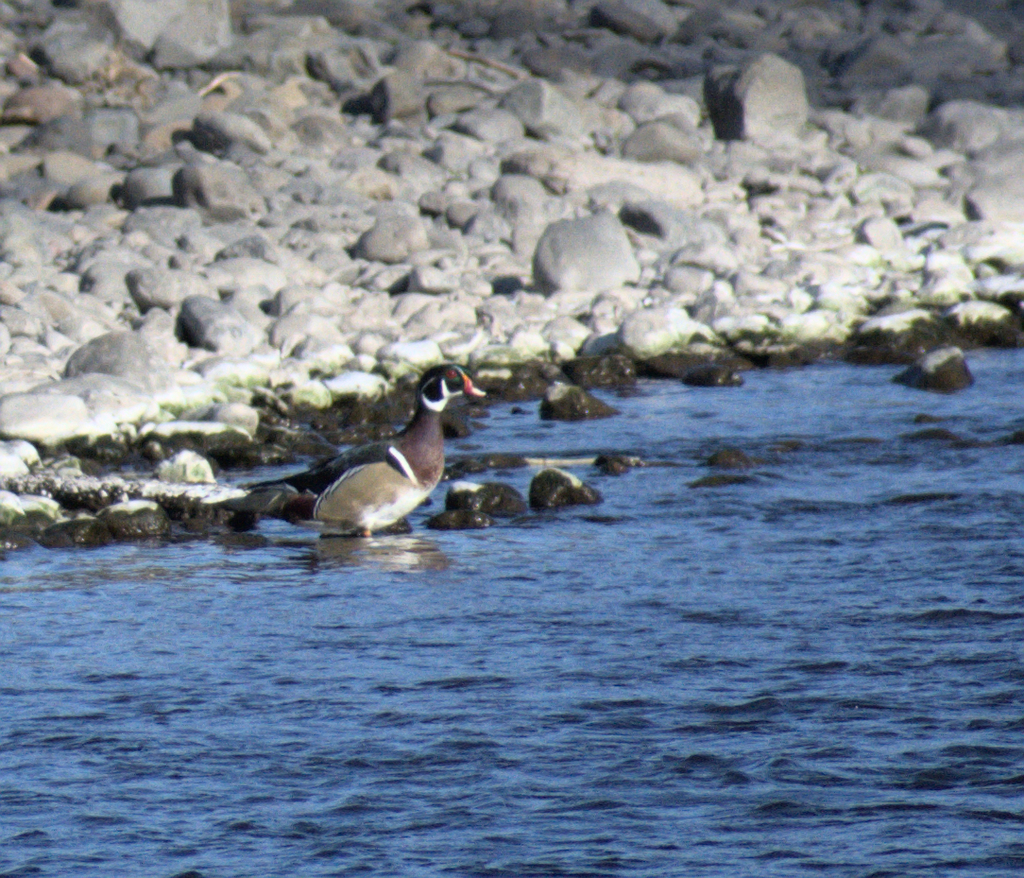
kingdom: Animalia
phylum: Chordata
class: Aves
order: Anseriformes
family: Anatidae
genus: Aix
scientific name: Aix sponsa
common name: Wood duck
